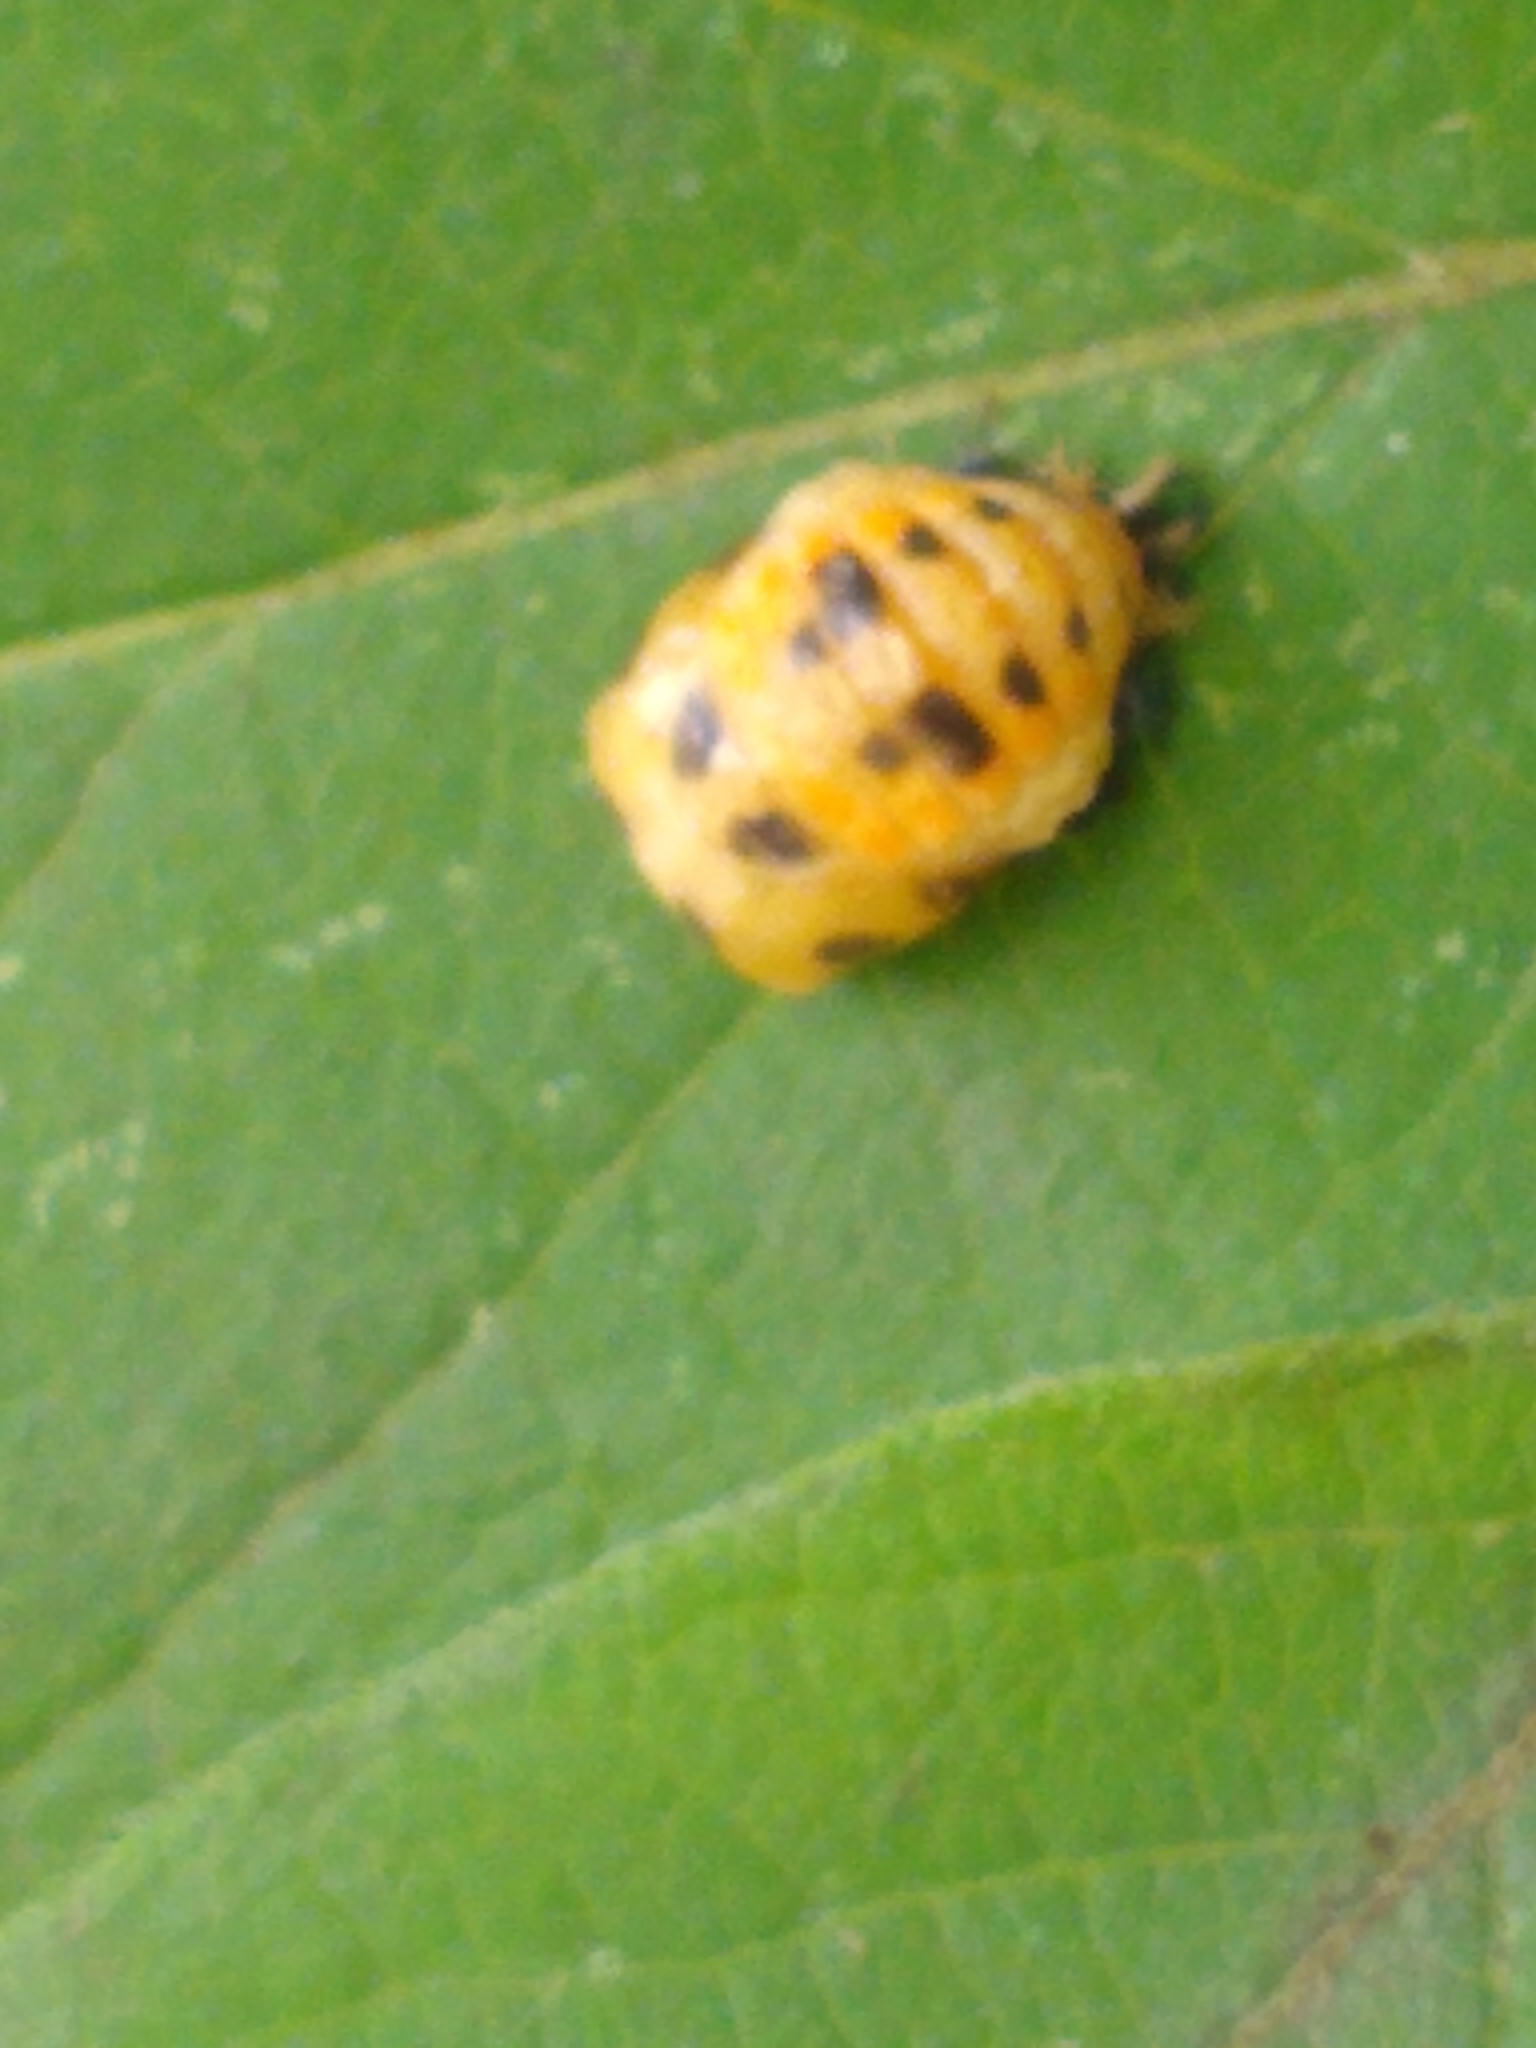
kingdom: Animalia
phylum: Arthropoda
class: Insecta
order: Coleoptera
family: Coccinellidae
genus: Harmonia
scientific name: Harmonia axyridis
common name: Harlequin ladybird
